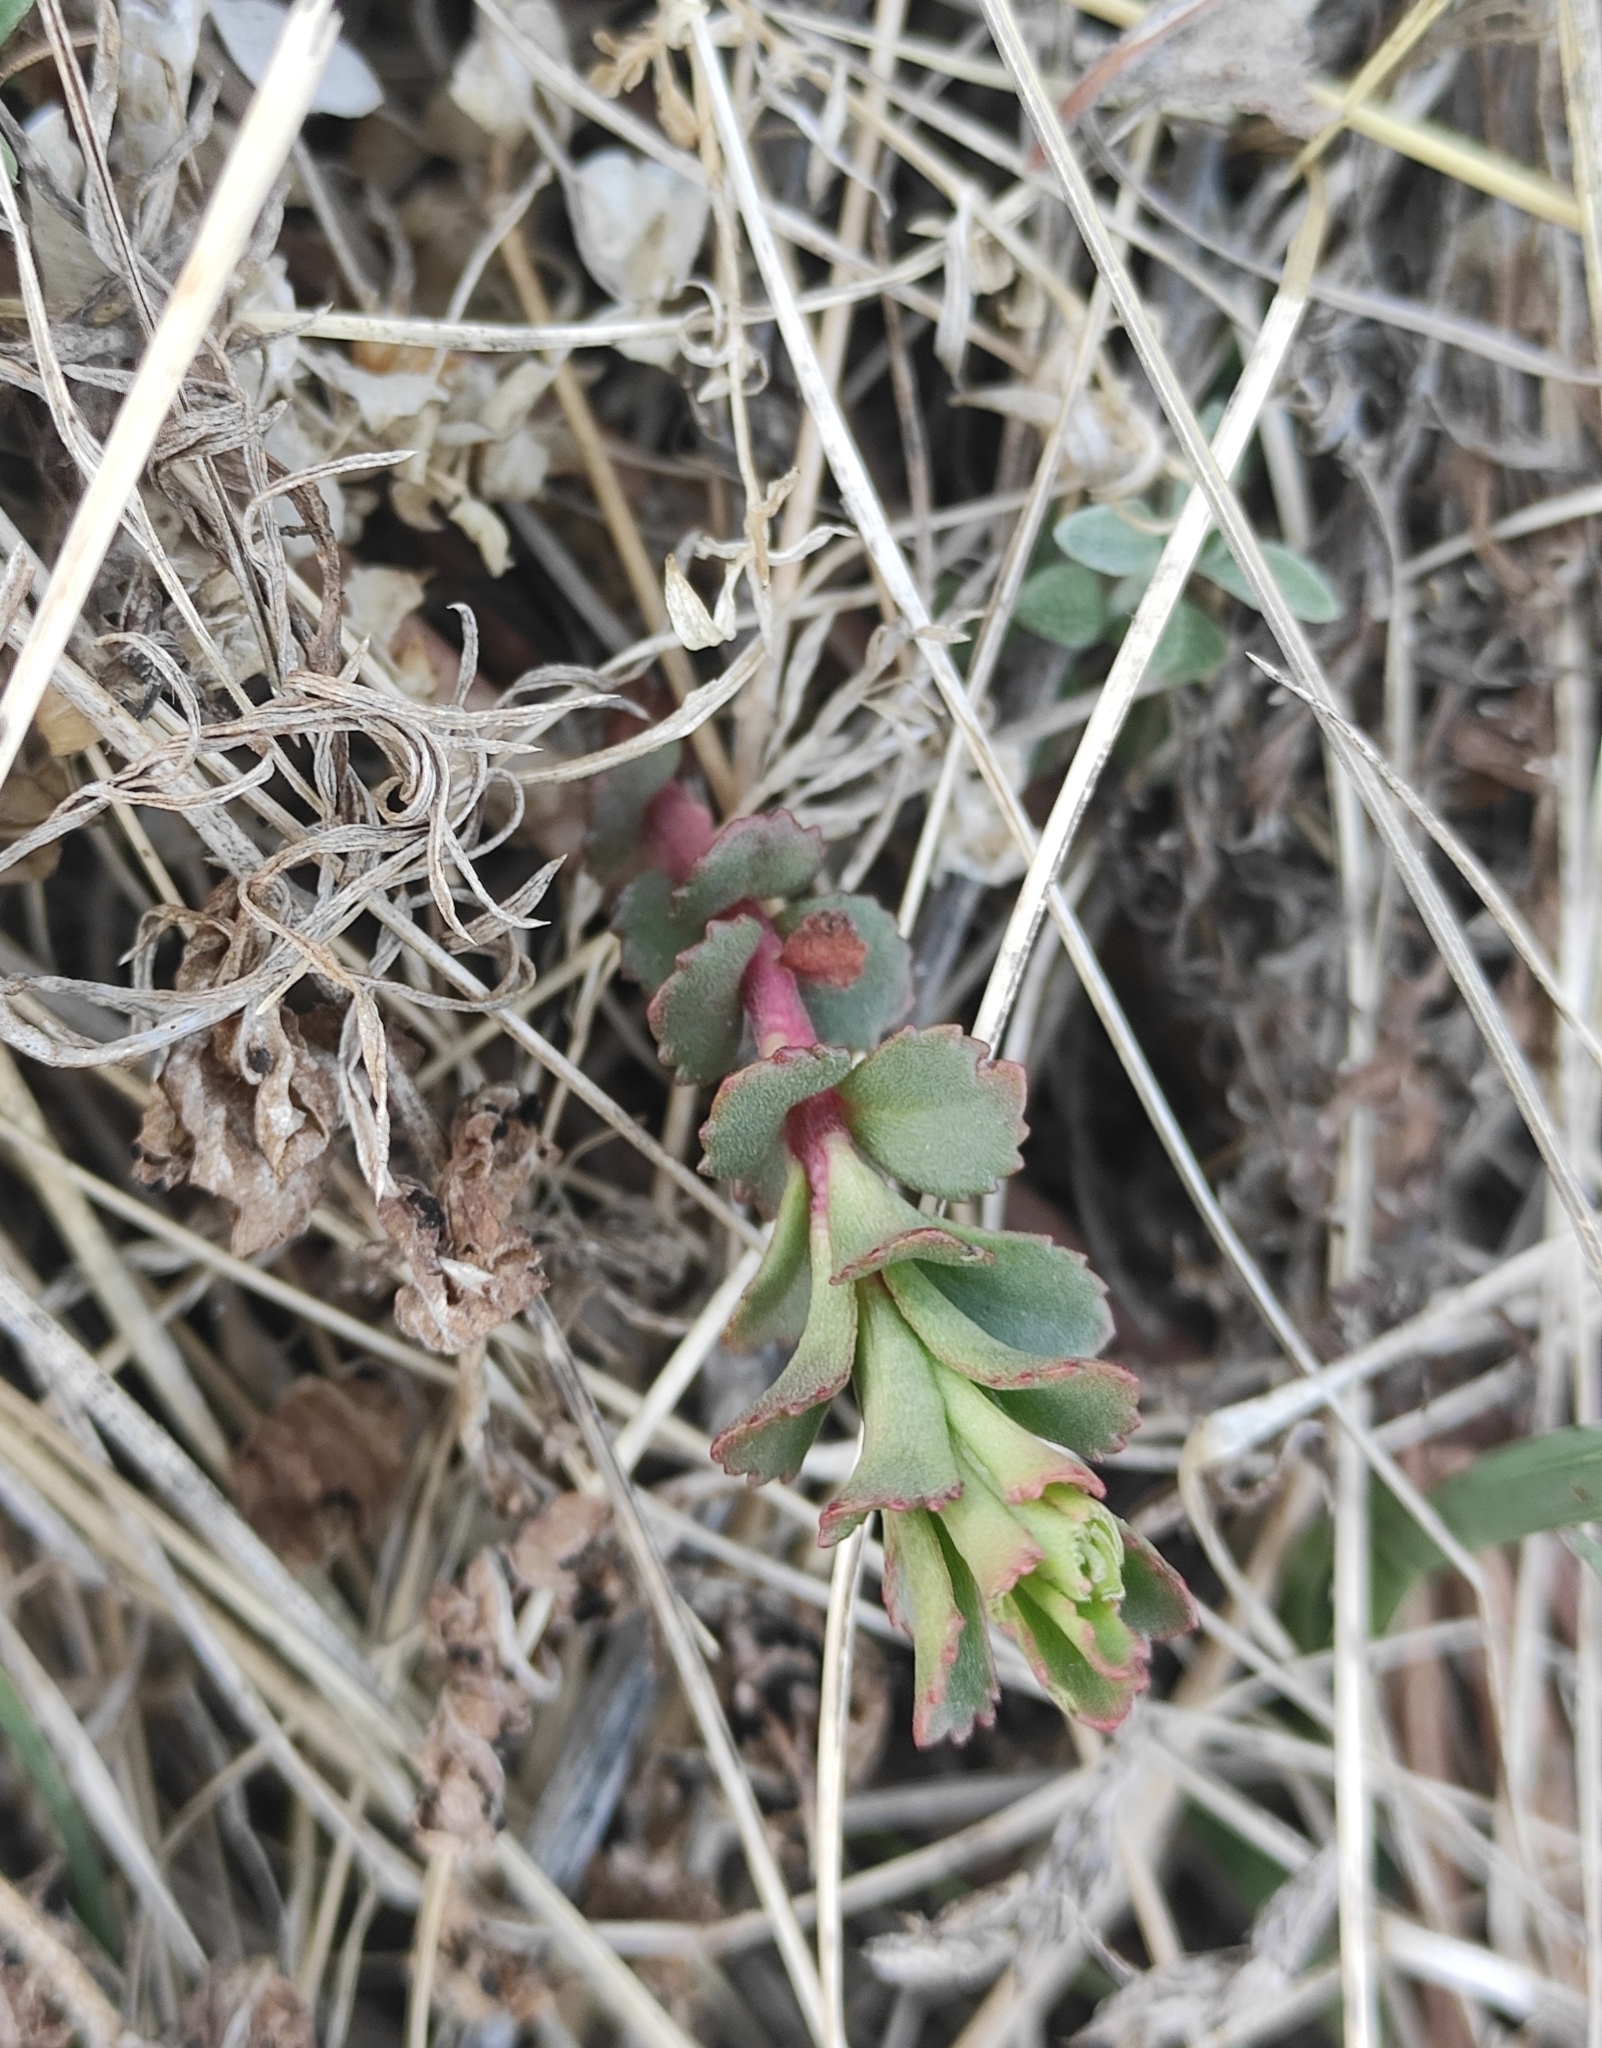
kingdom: Plantae
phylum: Tracheophyta
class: Magnoliopsida
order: Saxifragales
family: Crassulaceae
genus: Hylotelephium
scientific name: Hylotelephium telephium
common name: Live-forever
